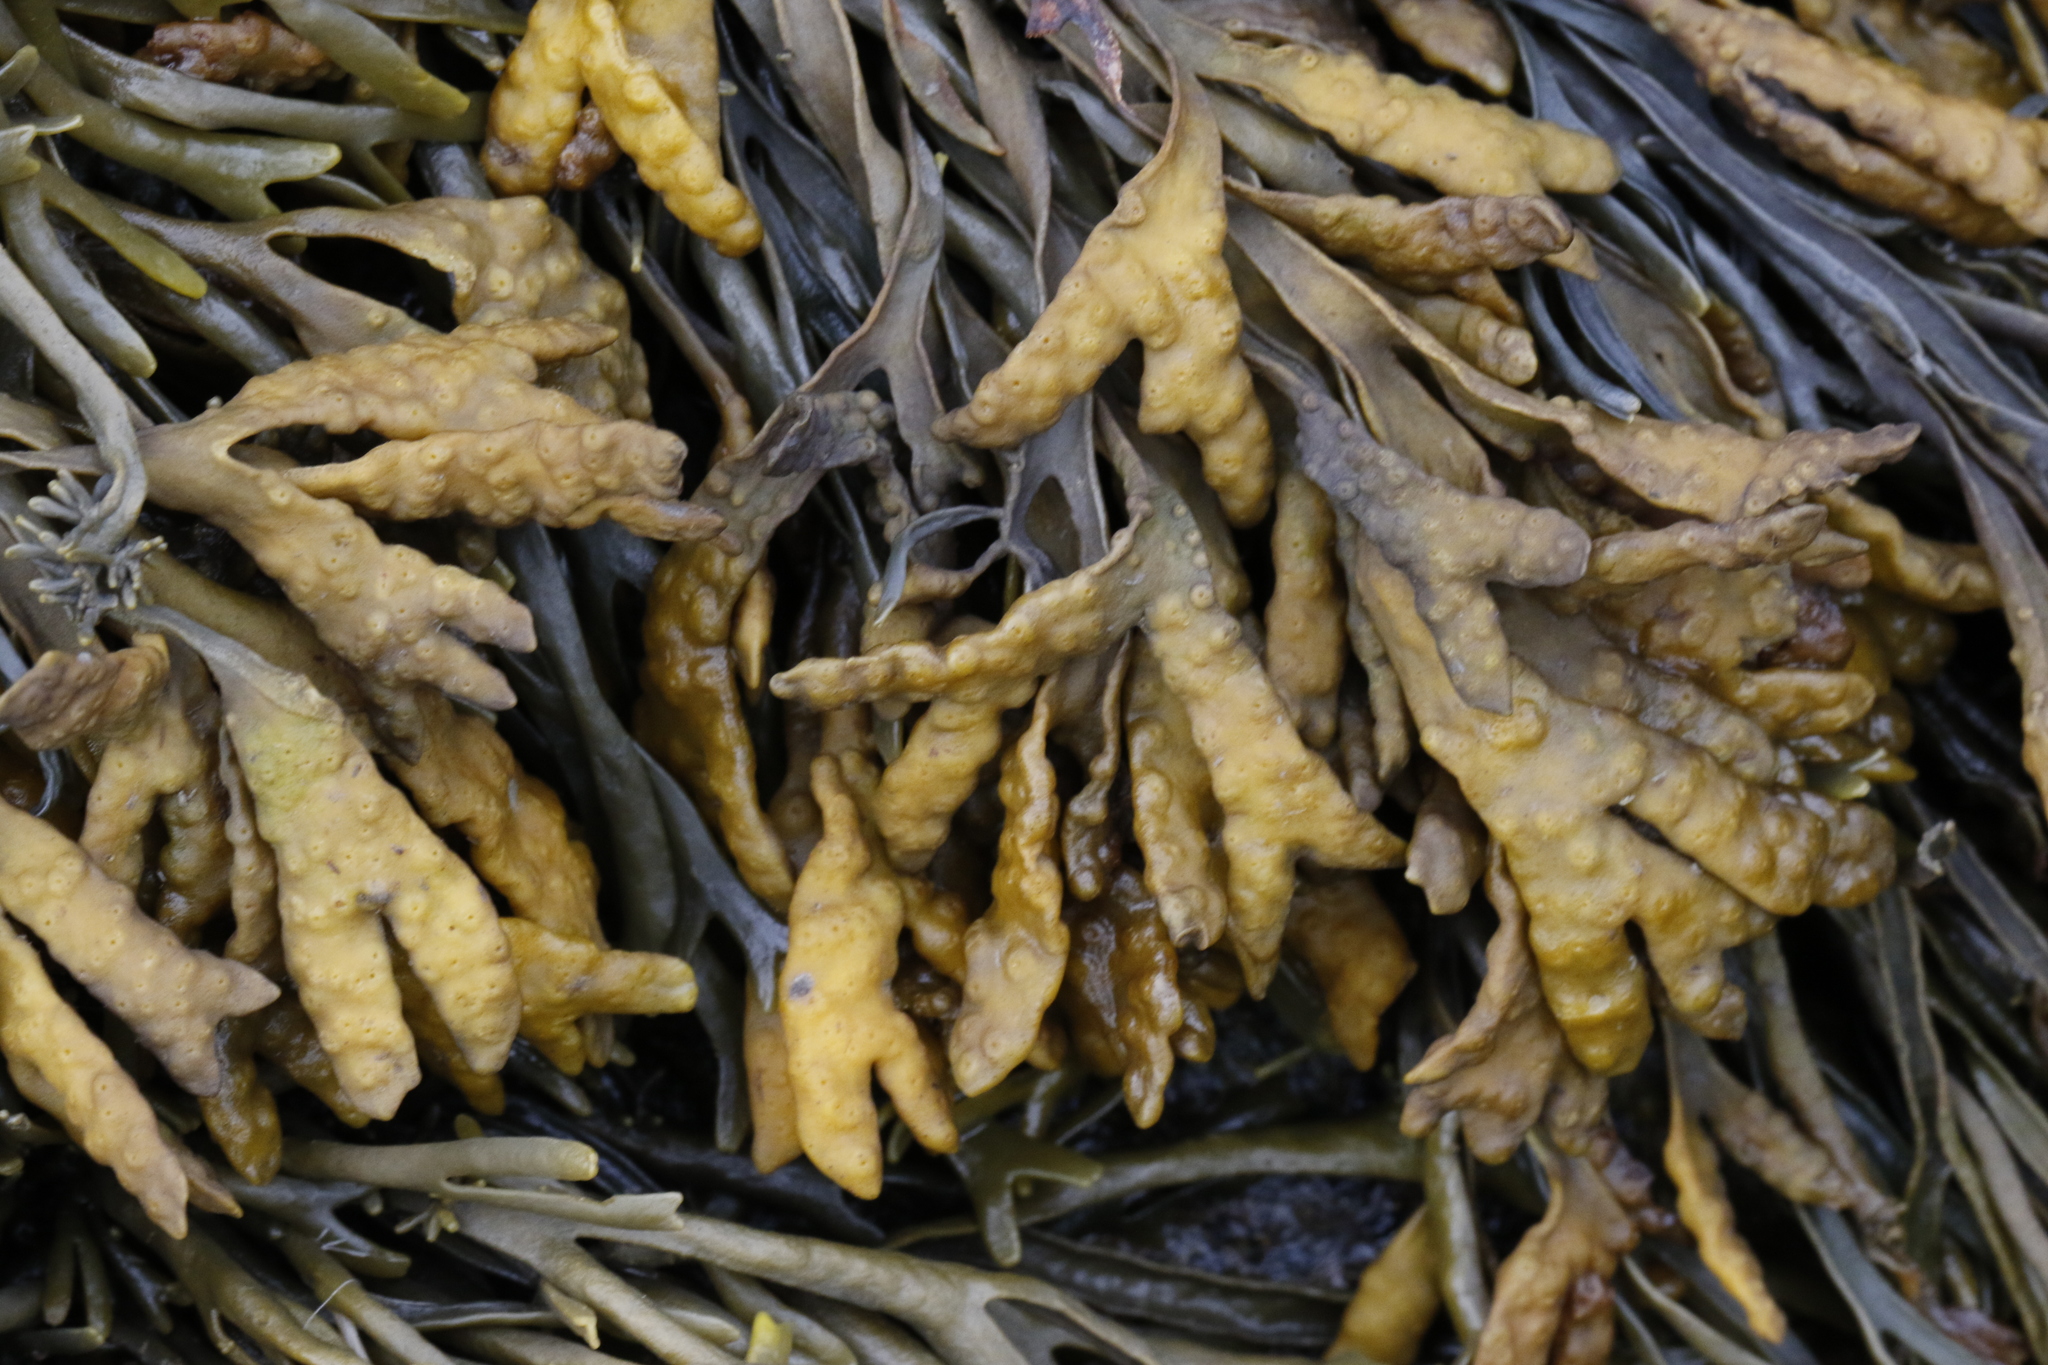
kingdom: Chromista
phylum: Ochrophyta
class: Phaeophyceae
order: Fucales
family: Fucaceae
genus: Pelvetia
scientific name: Pelvetia canaliculata
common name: Channelled wrack
